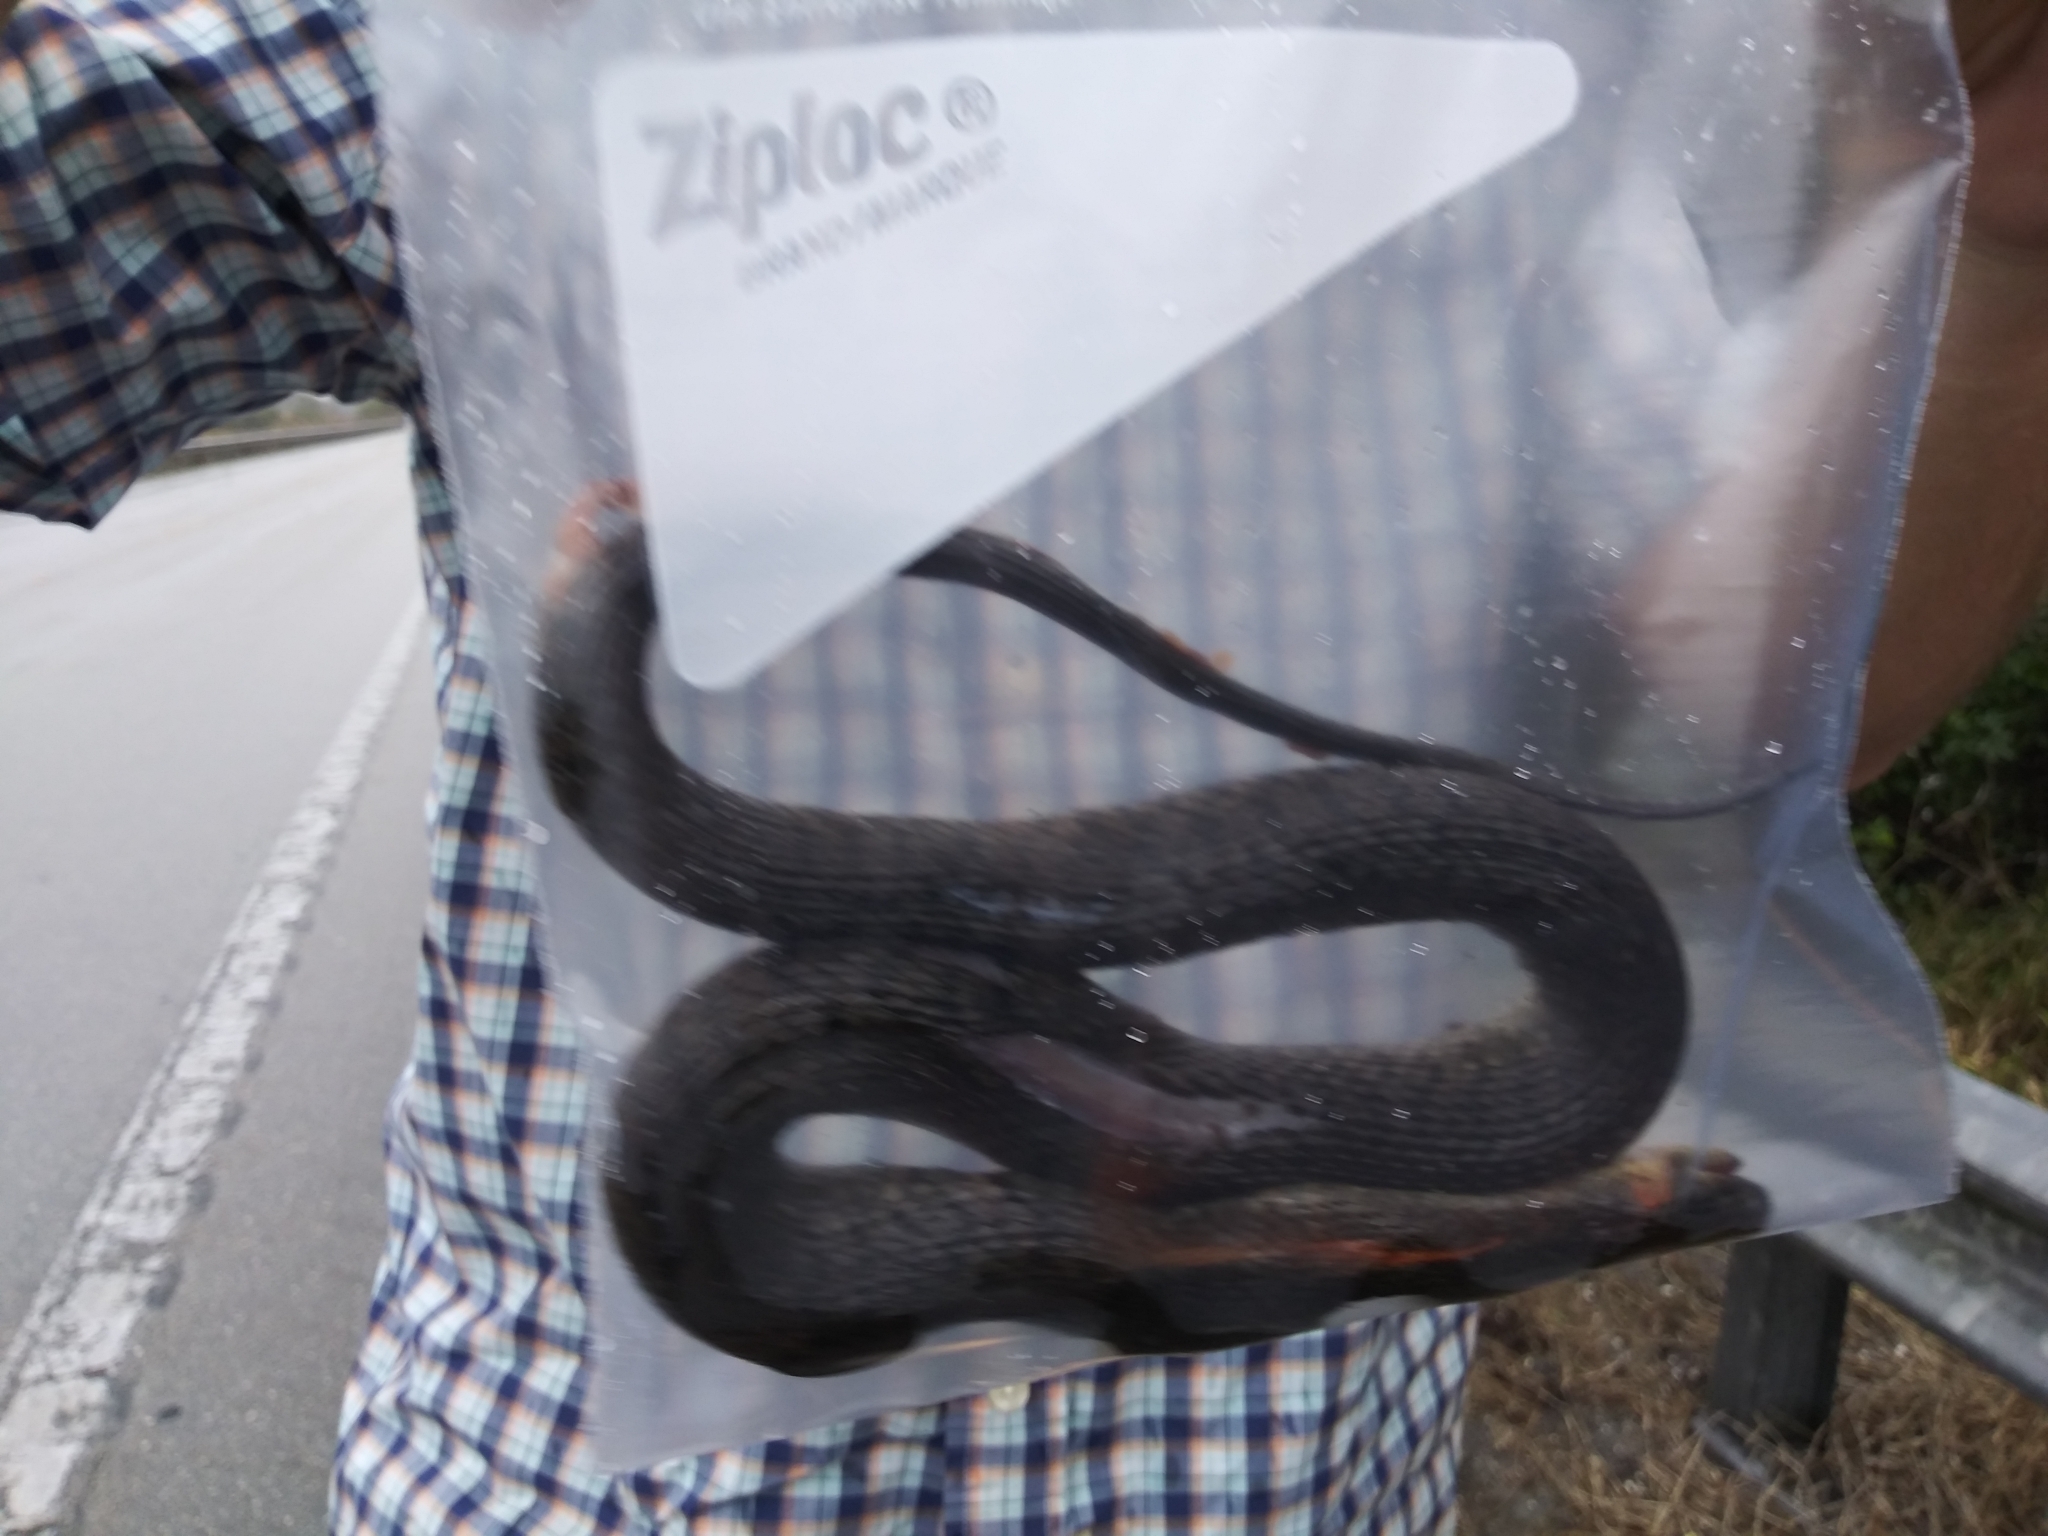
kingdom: Animalia
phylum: Chordata
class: Squamata
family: Colubridae
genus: Nerodia
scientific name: Nerodia floridana
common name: Florida green watersnake
